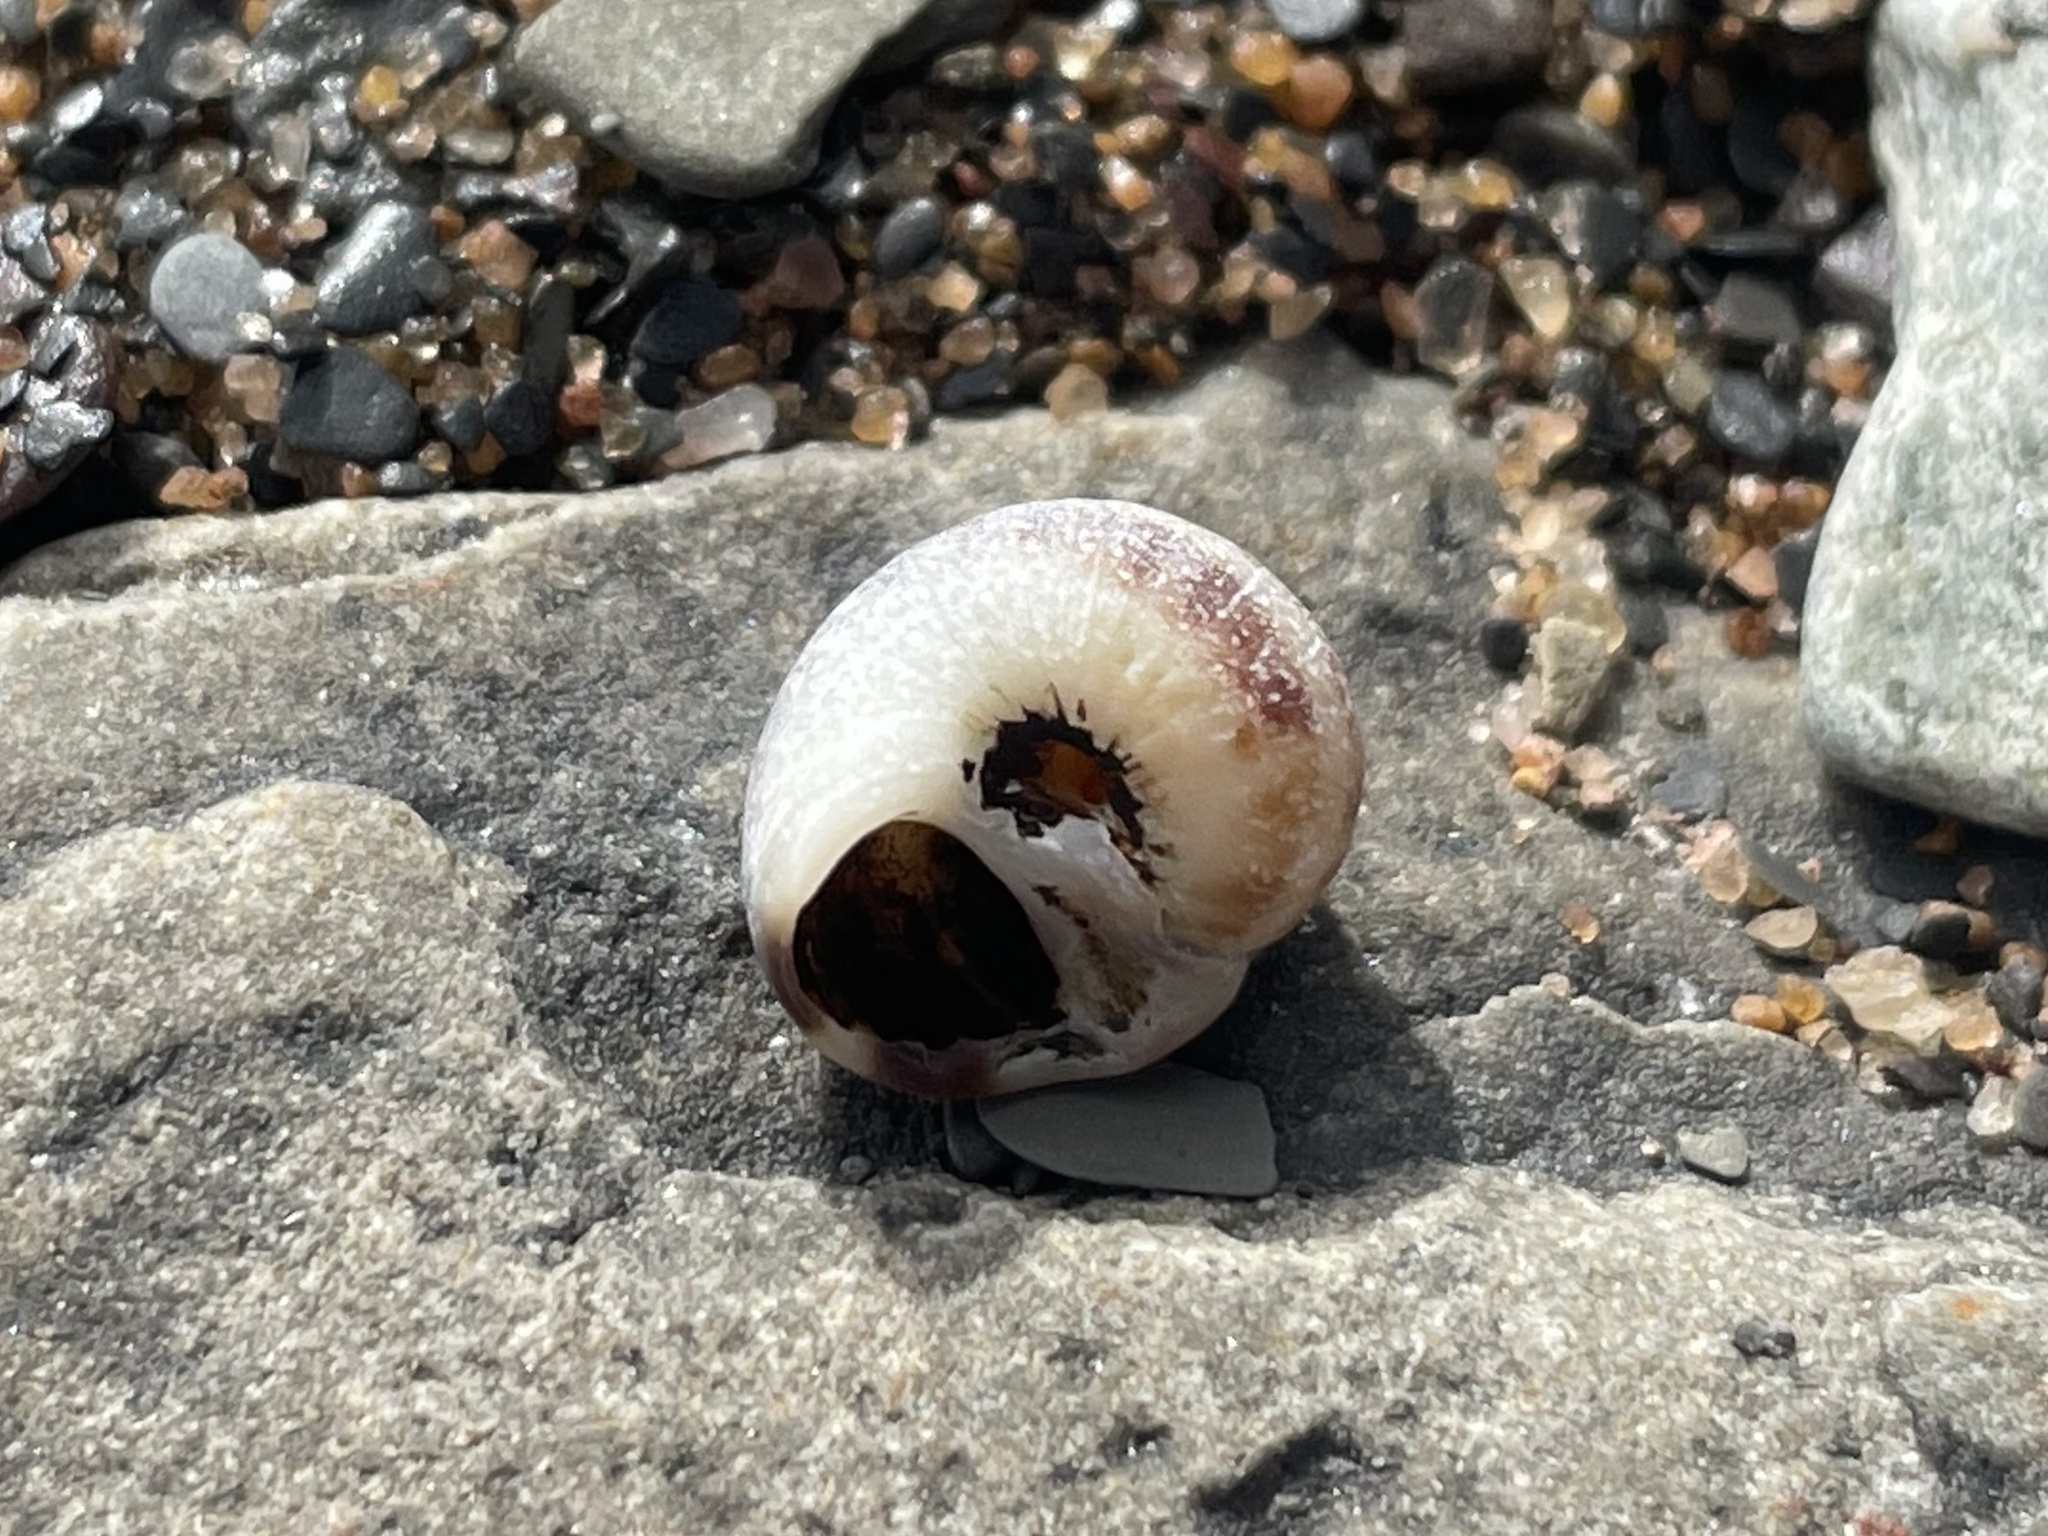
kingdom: Animalia
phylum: Mollusca
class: Gastropoda
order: Littorinimorpha
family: Naticidae
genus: Euspira
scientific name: Euspira triseriata
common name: Spotted moonsnail
